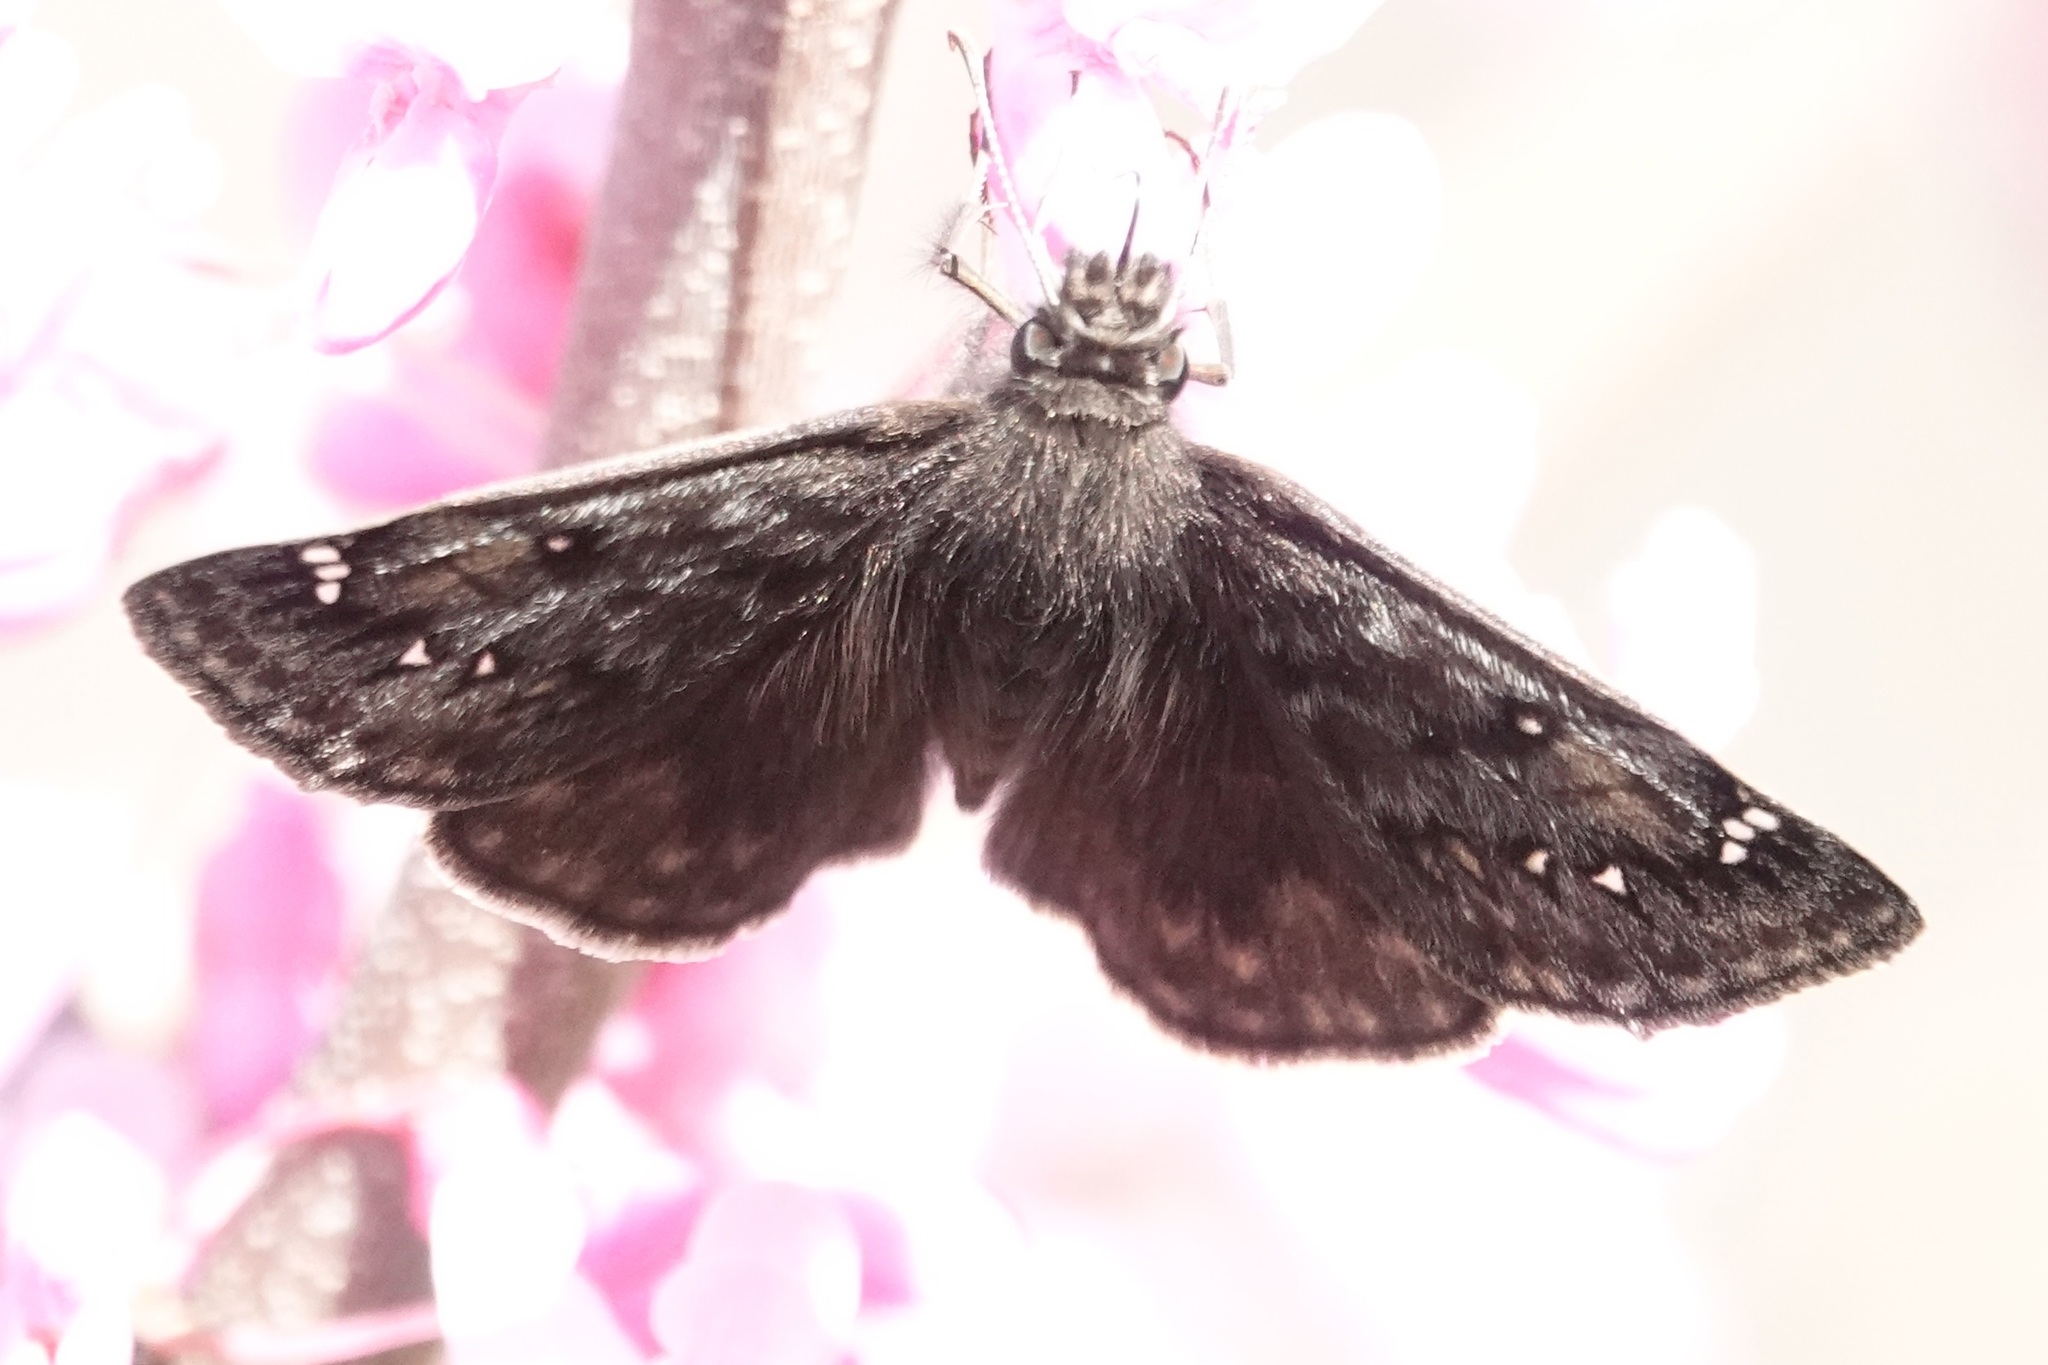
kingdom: Animalia
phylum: Arthropoda
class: Insecta
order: Lepidoptera
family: Hesperiidae
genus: Erynnis
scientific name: Erynnis juvenalis
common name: Juvenal's duskywing
